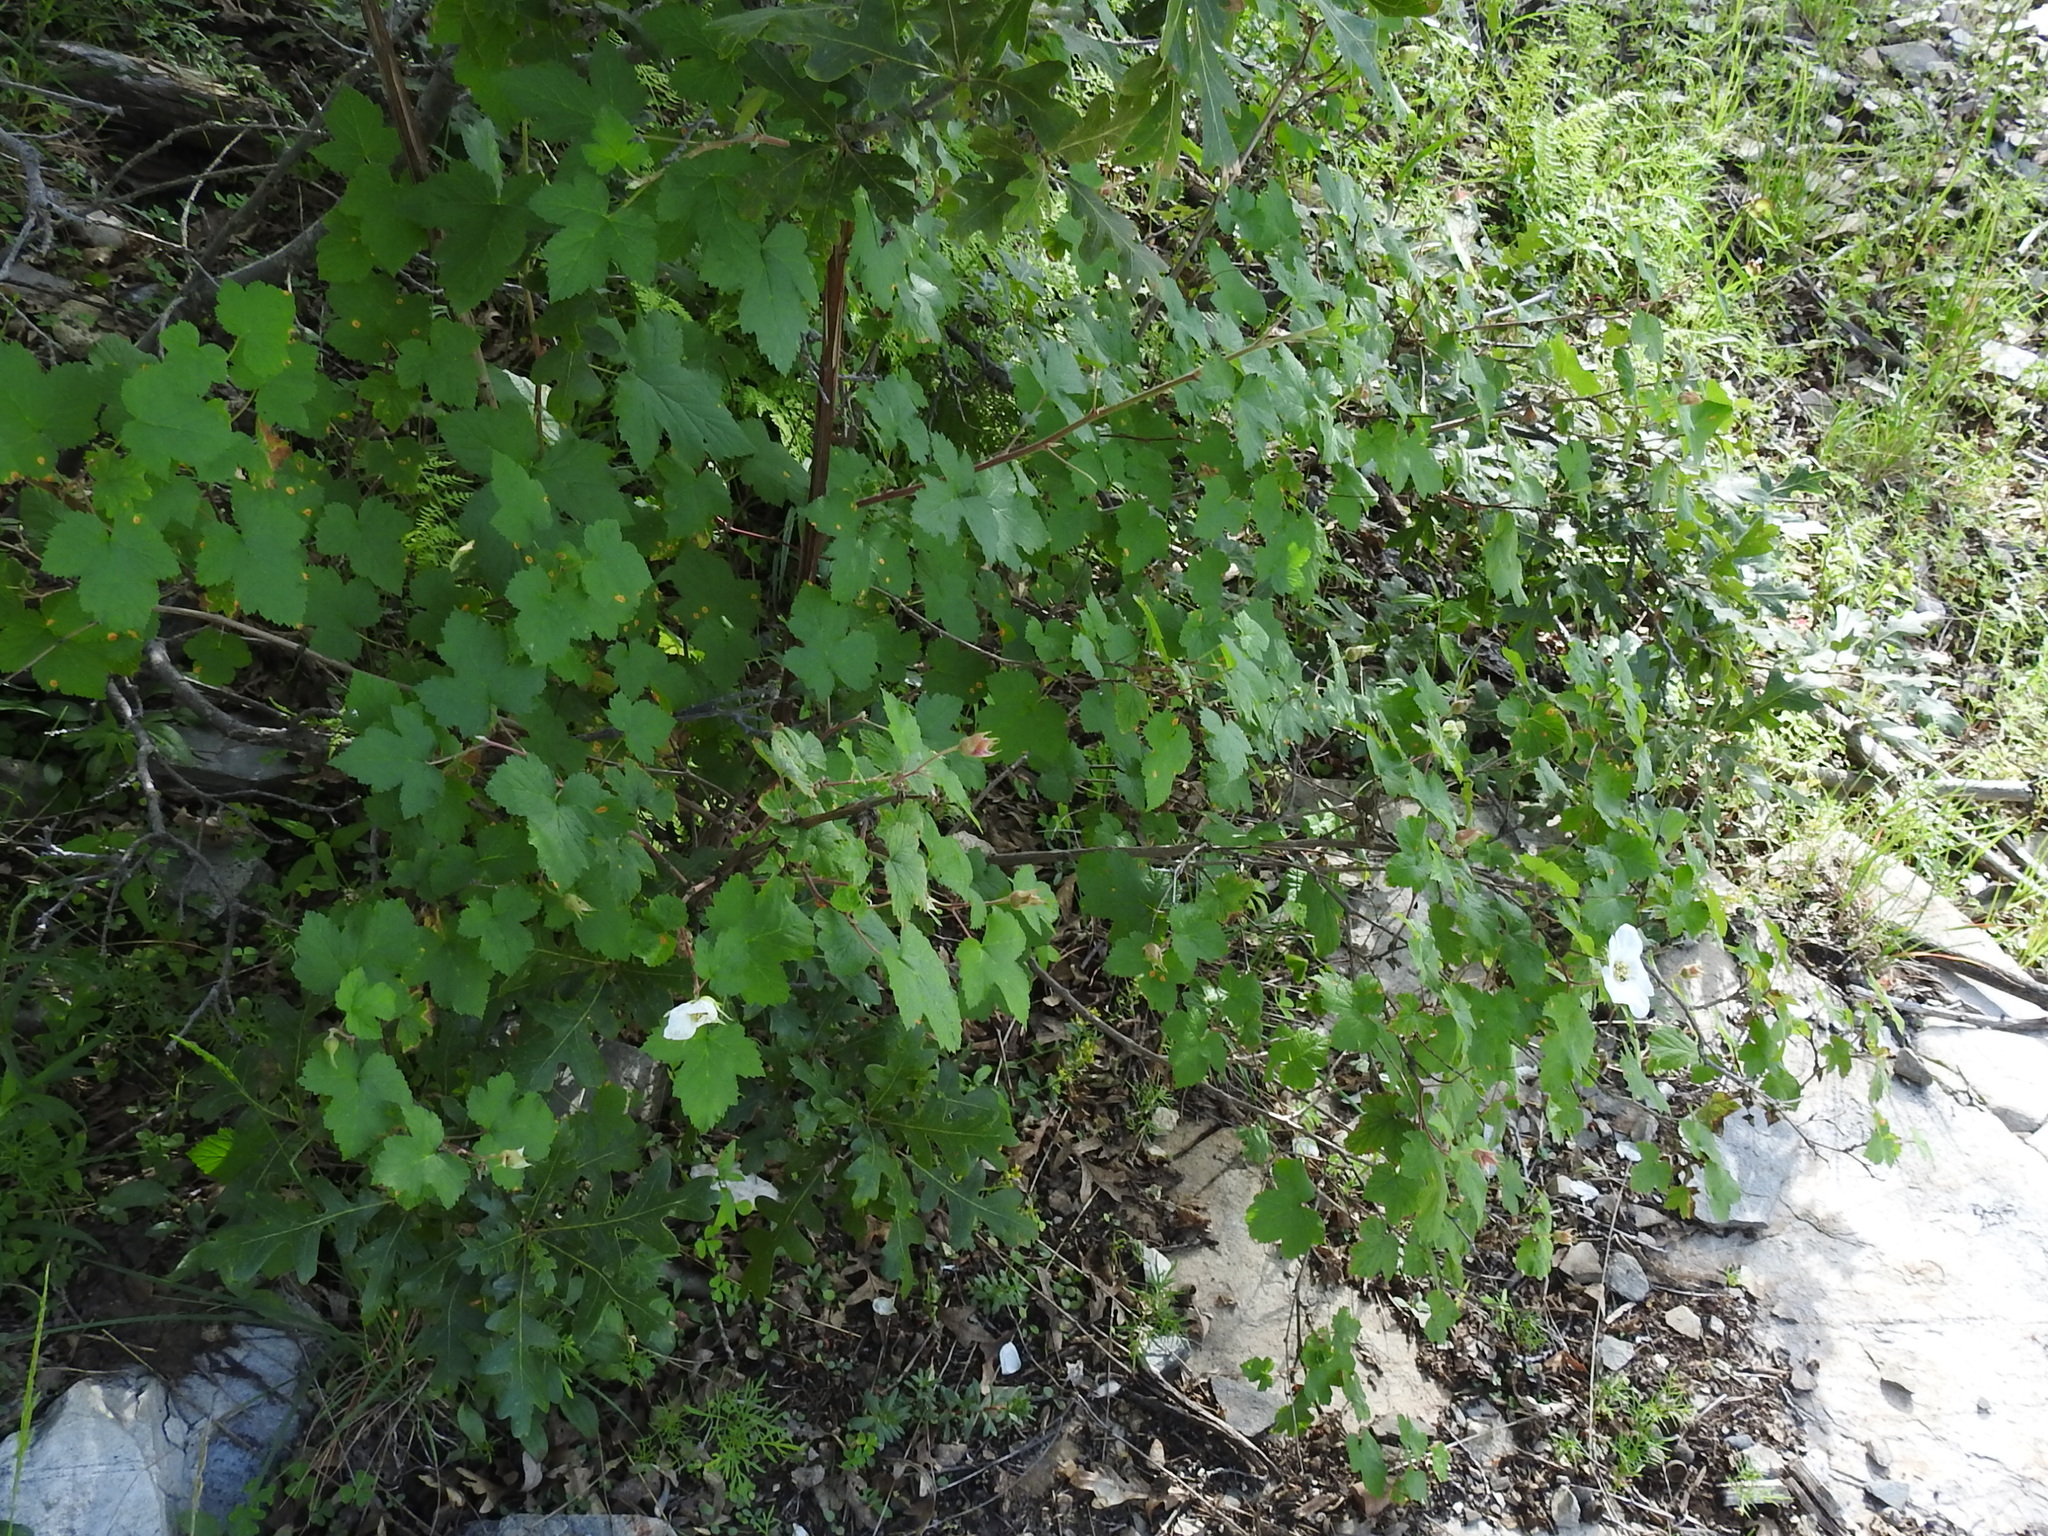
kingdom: Plantae
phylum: Tracheophyta
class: Magnoliopsida
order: Rosales
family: Rosaceae
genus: Rubus
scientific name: Rubus neomexicanus
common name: New mexico raspberry
